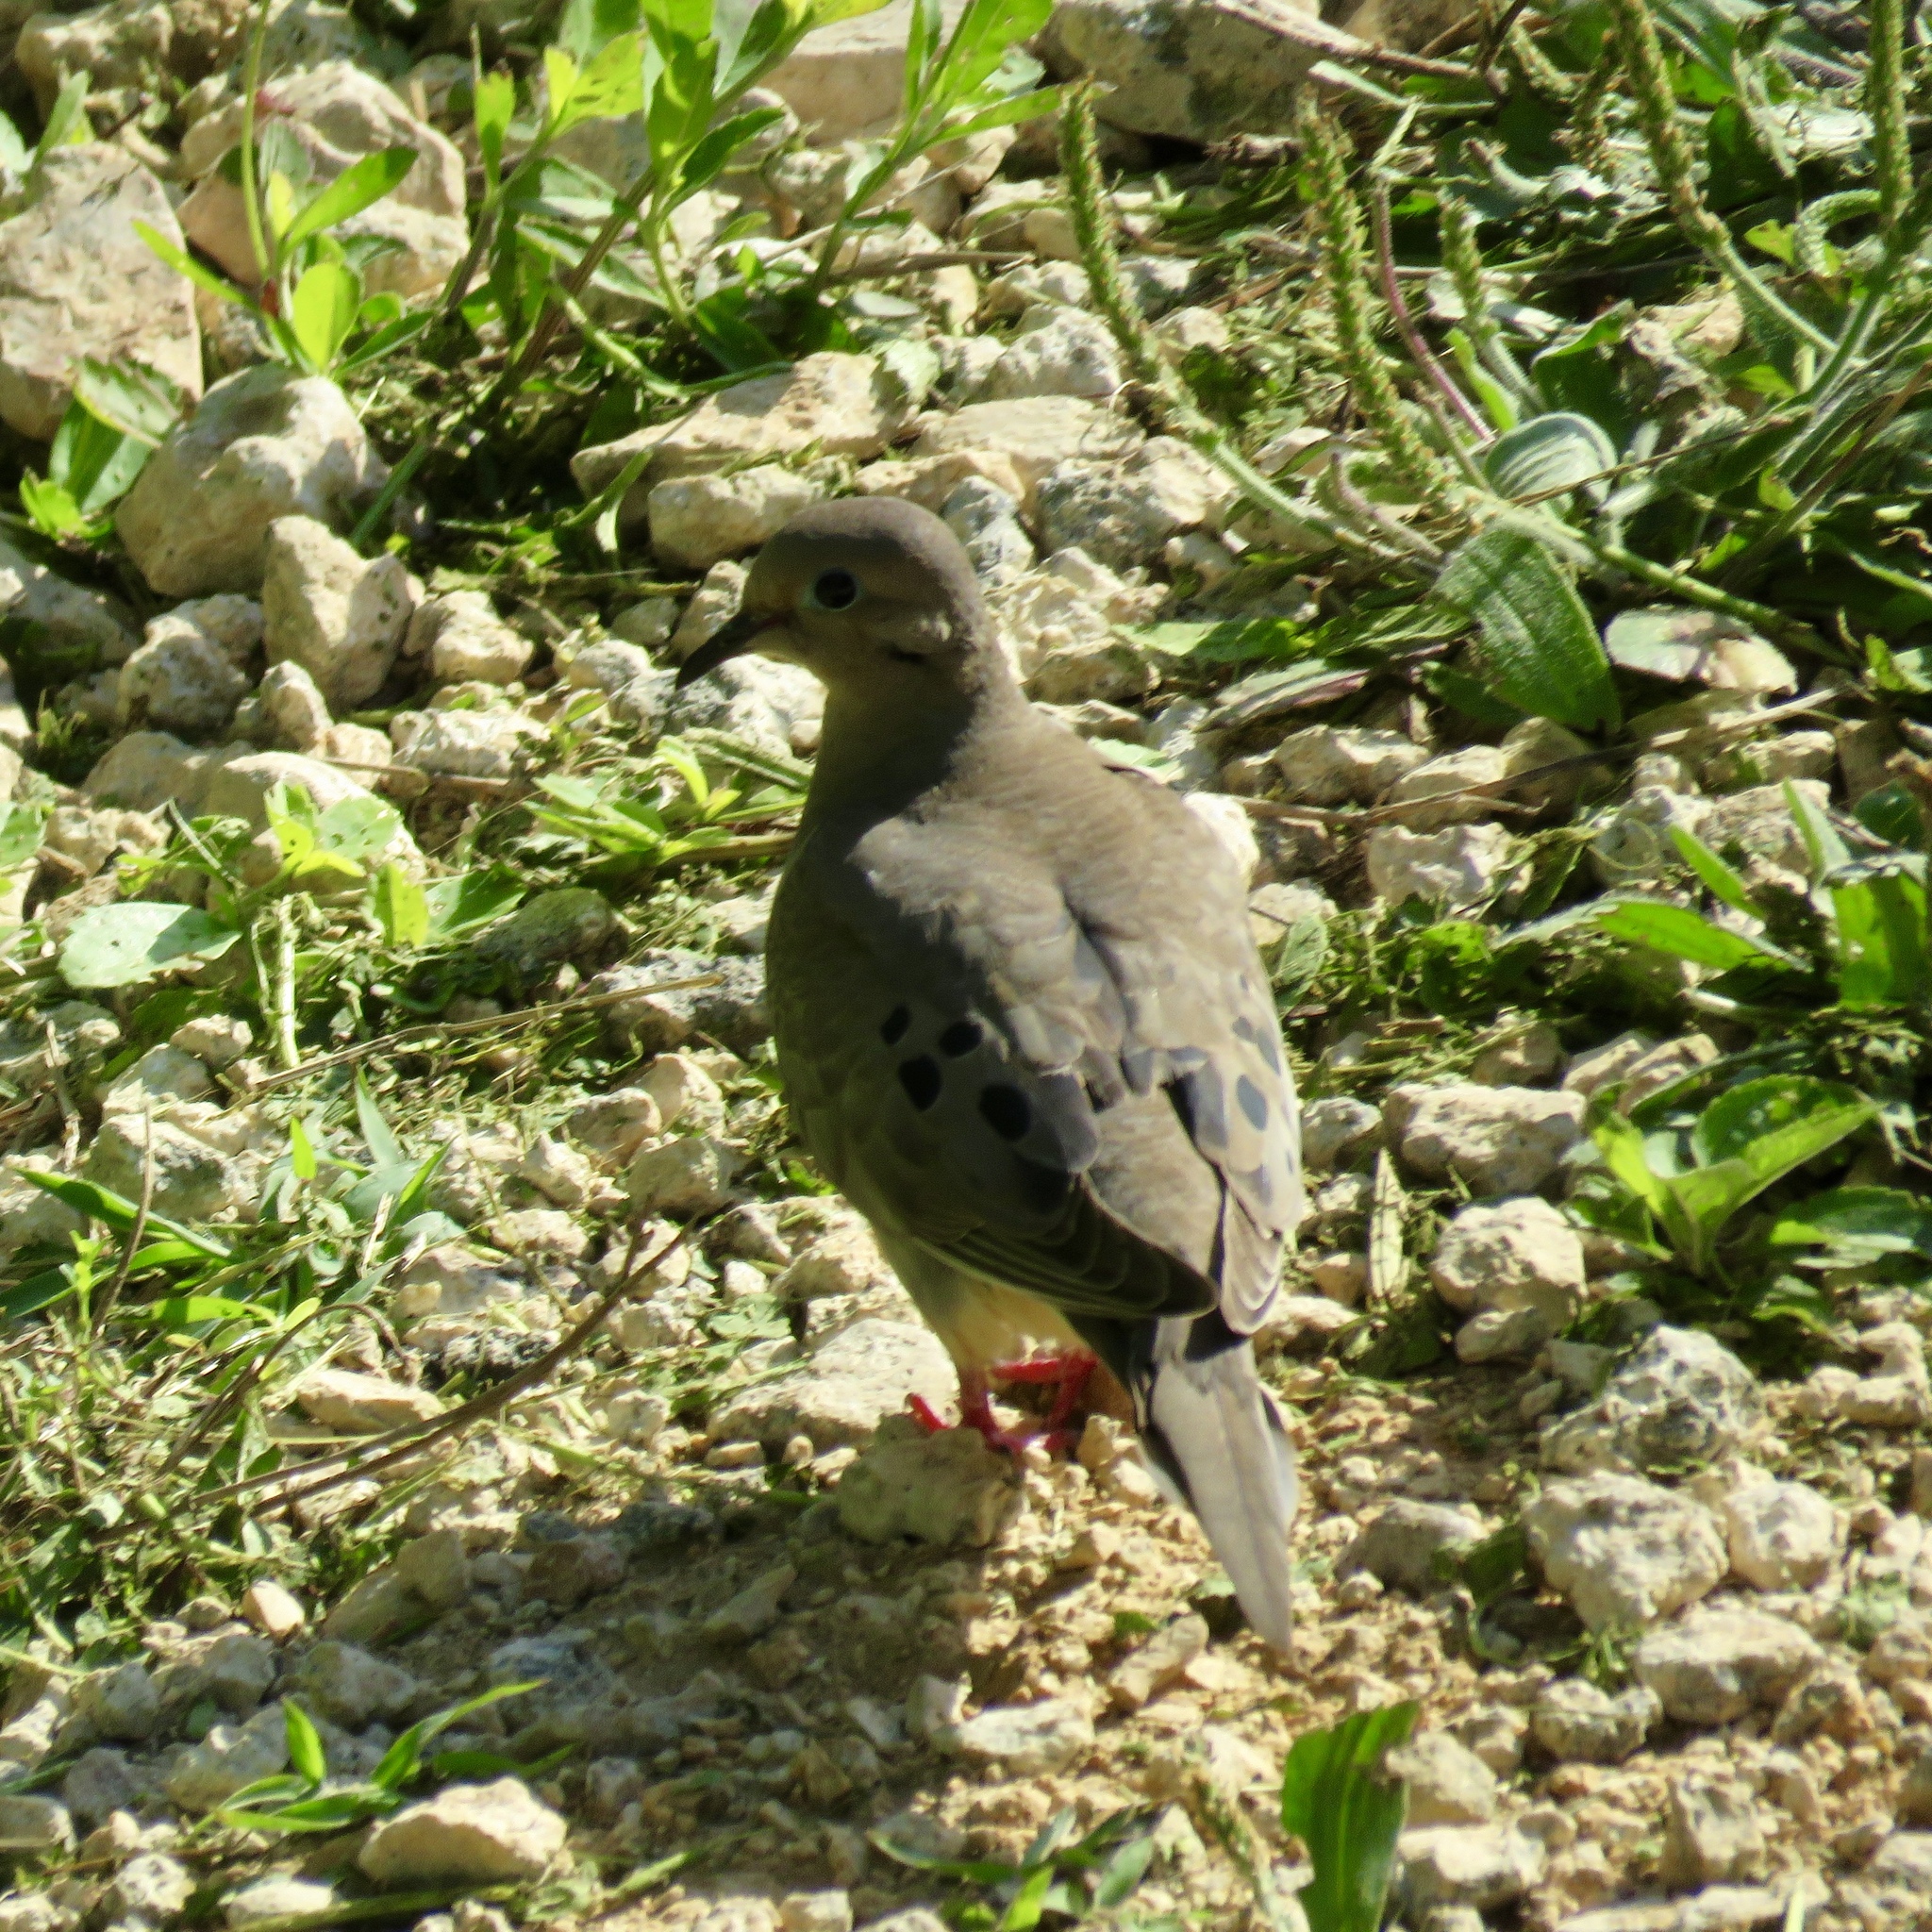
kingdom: Animalia
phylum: Chordata
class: Aves
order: Columbiformes
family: Columbidae
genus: Zenaida
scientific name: Zenaida macroura
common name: Mourning dove
